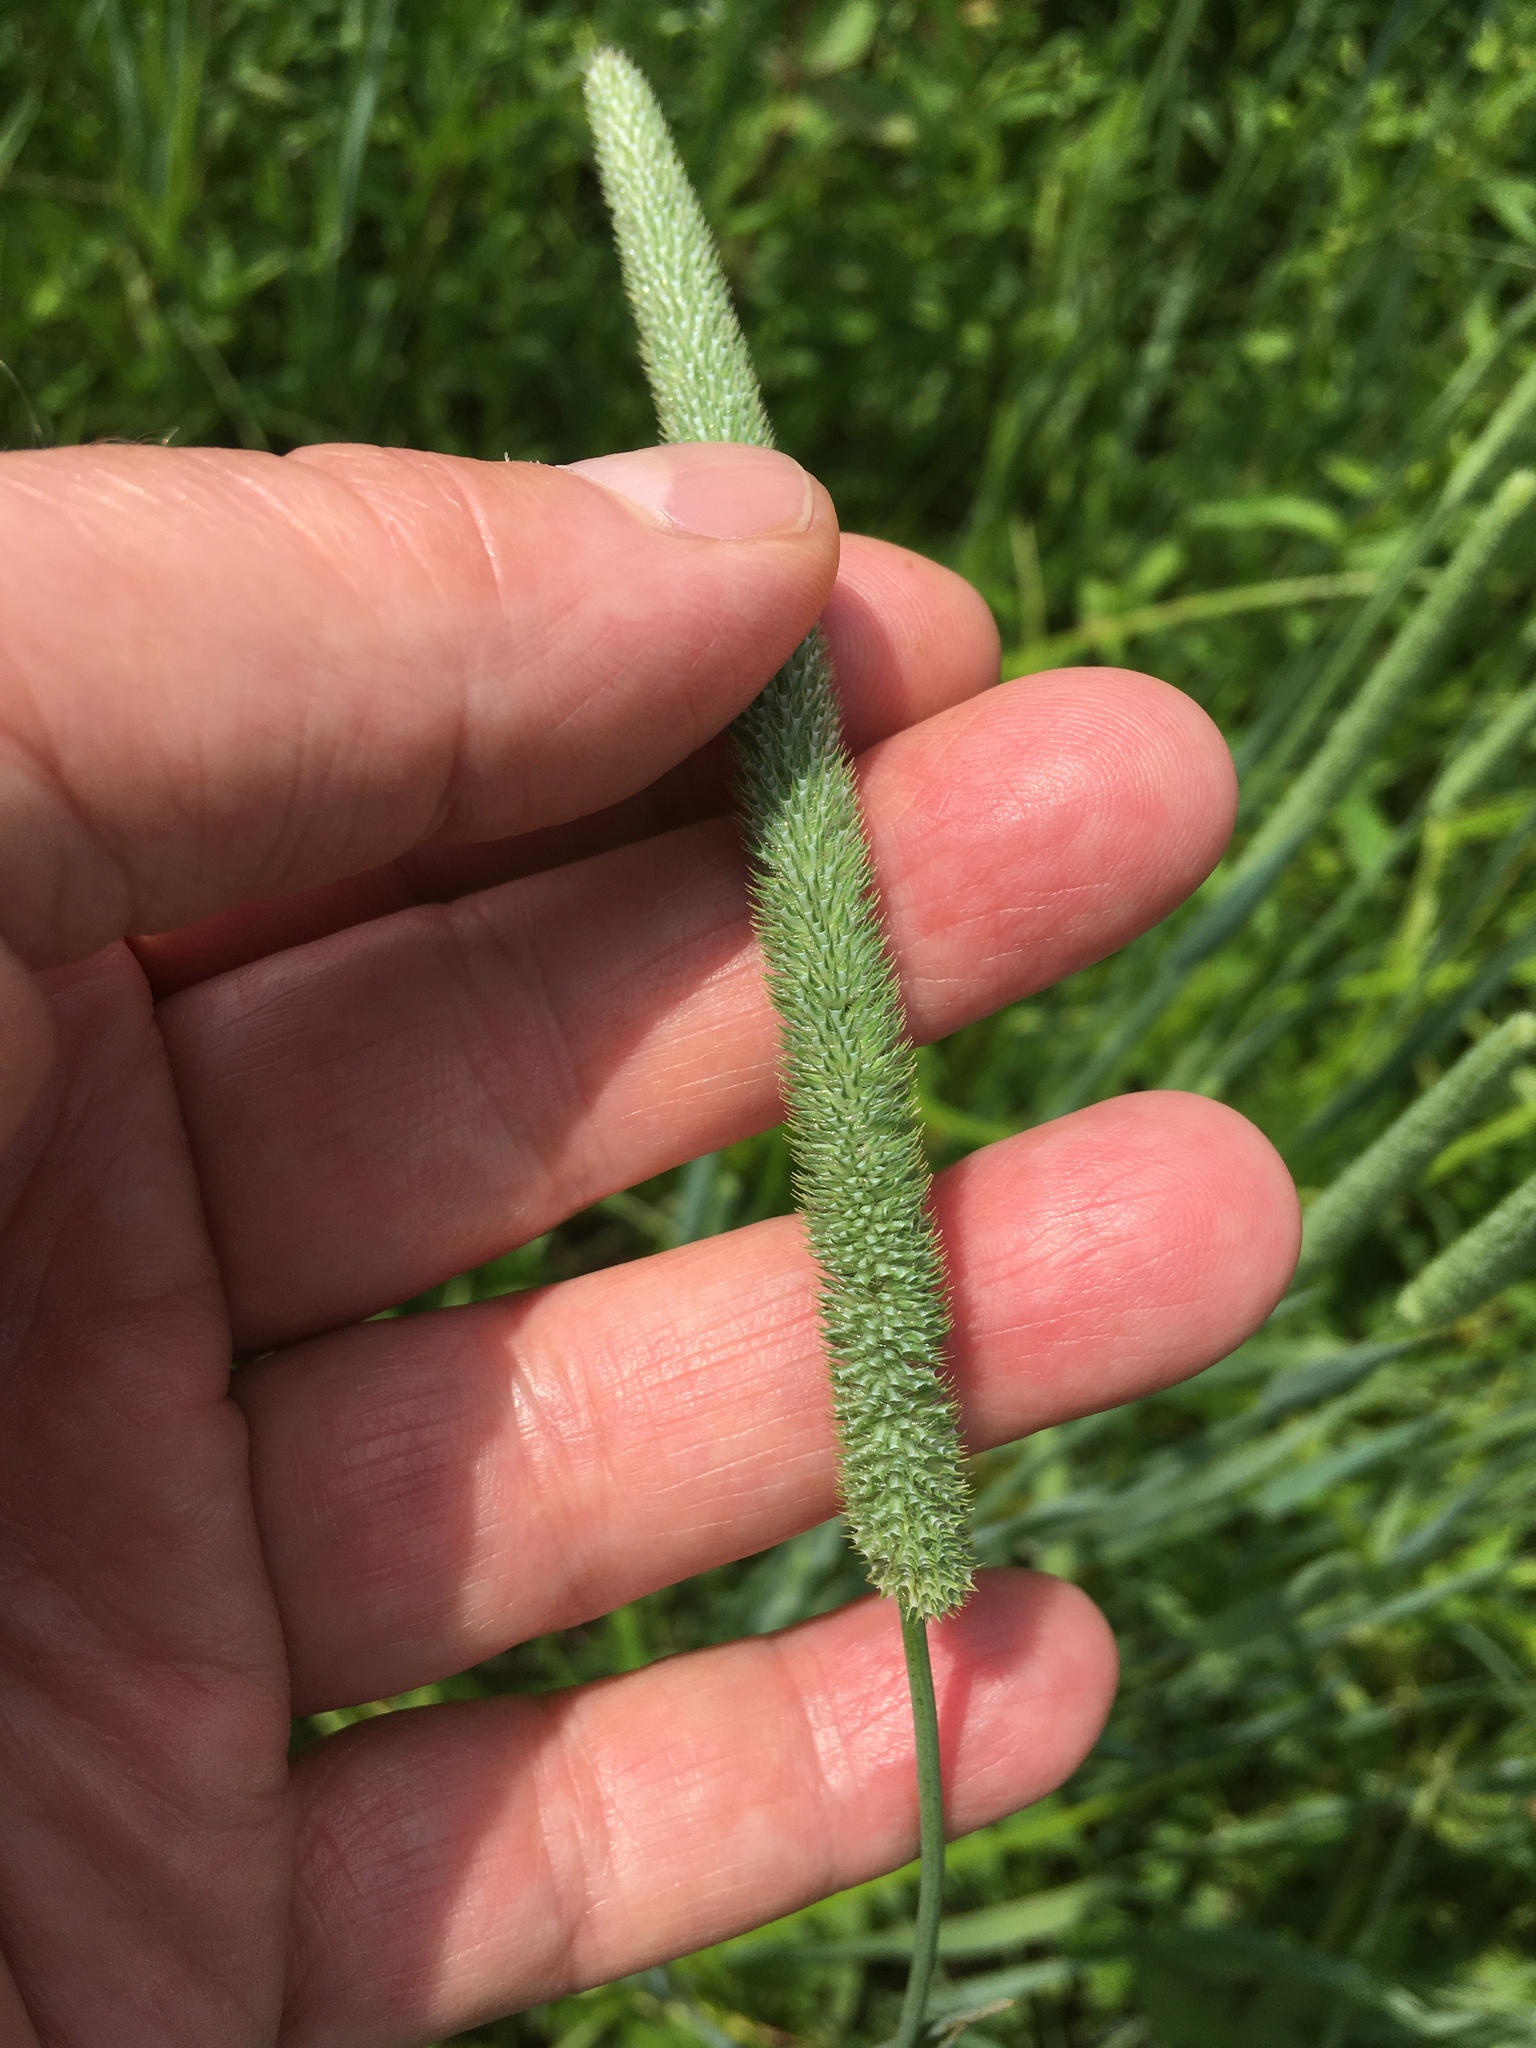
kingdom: Plantae
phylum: Tracheophyta
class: Liliopsida
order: Poales
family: Poaceae
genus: Phleum
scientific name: Phleum pratense
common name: Timothy grass
